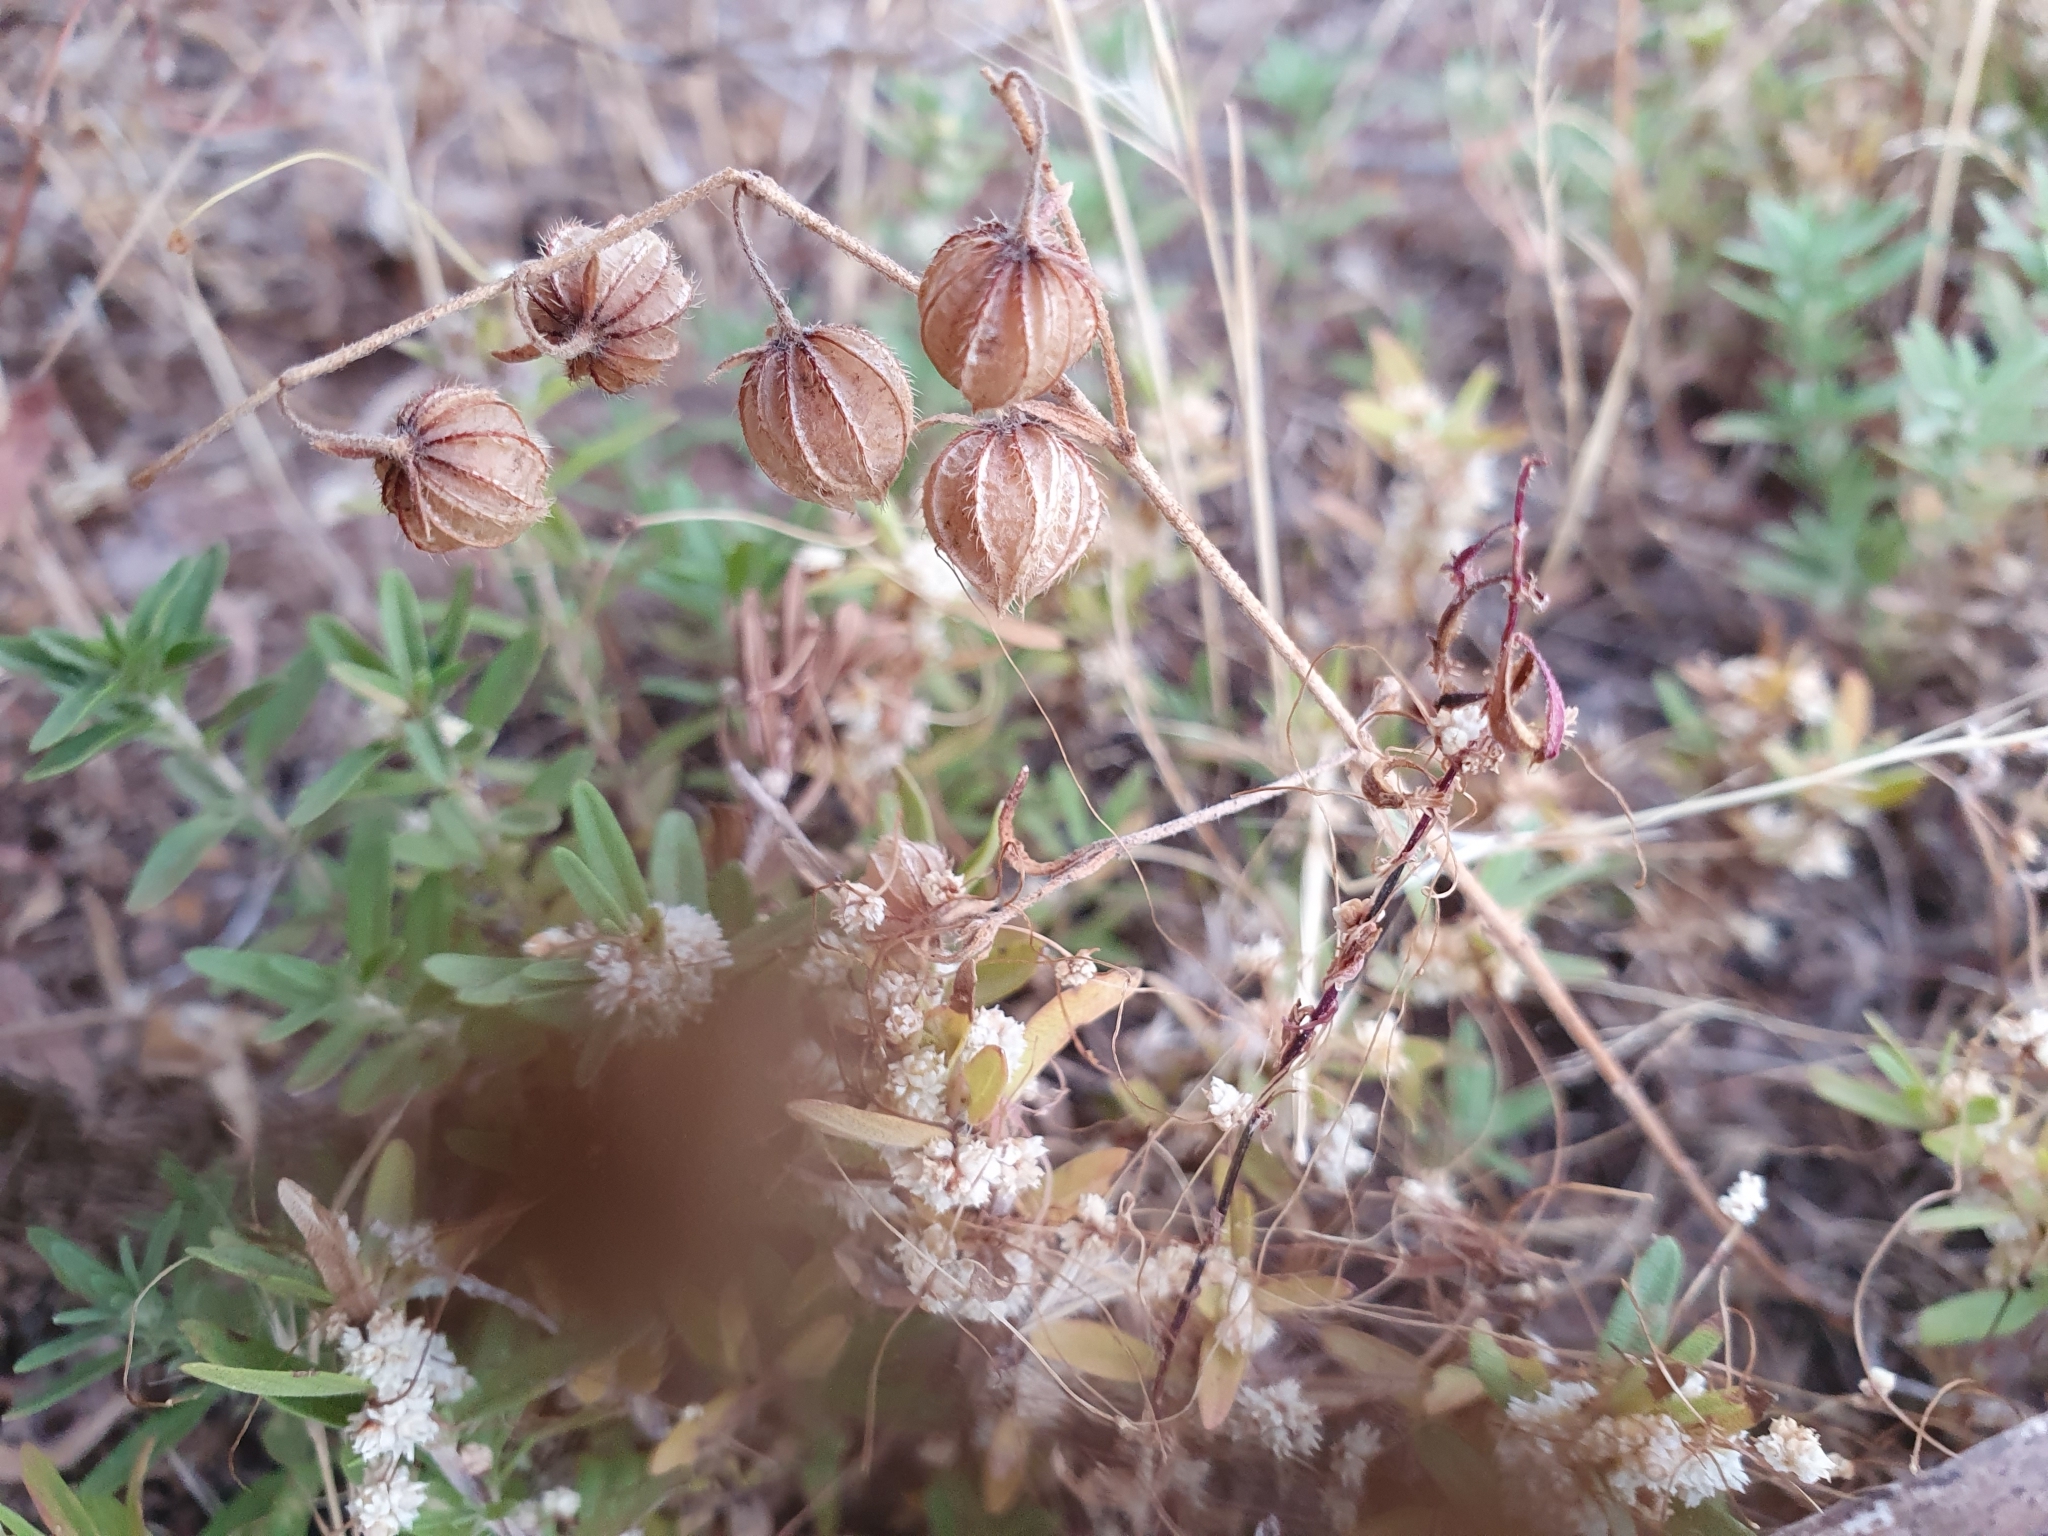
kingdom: Plantae
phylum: Tracheophyta
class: Magnoliopsida
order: Malvales
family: Cistaceae
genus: Helianthemum
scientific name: Helianthemum aegyptiacum
